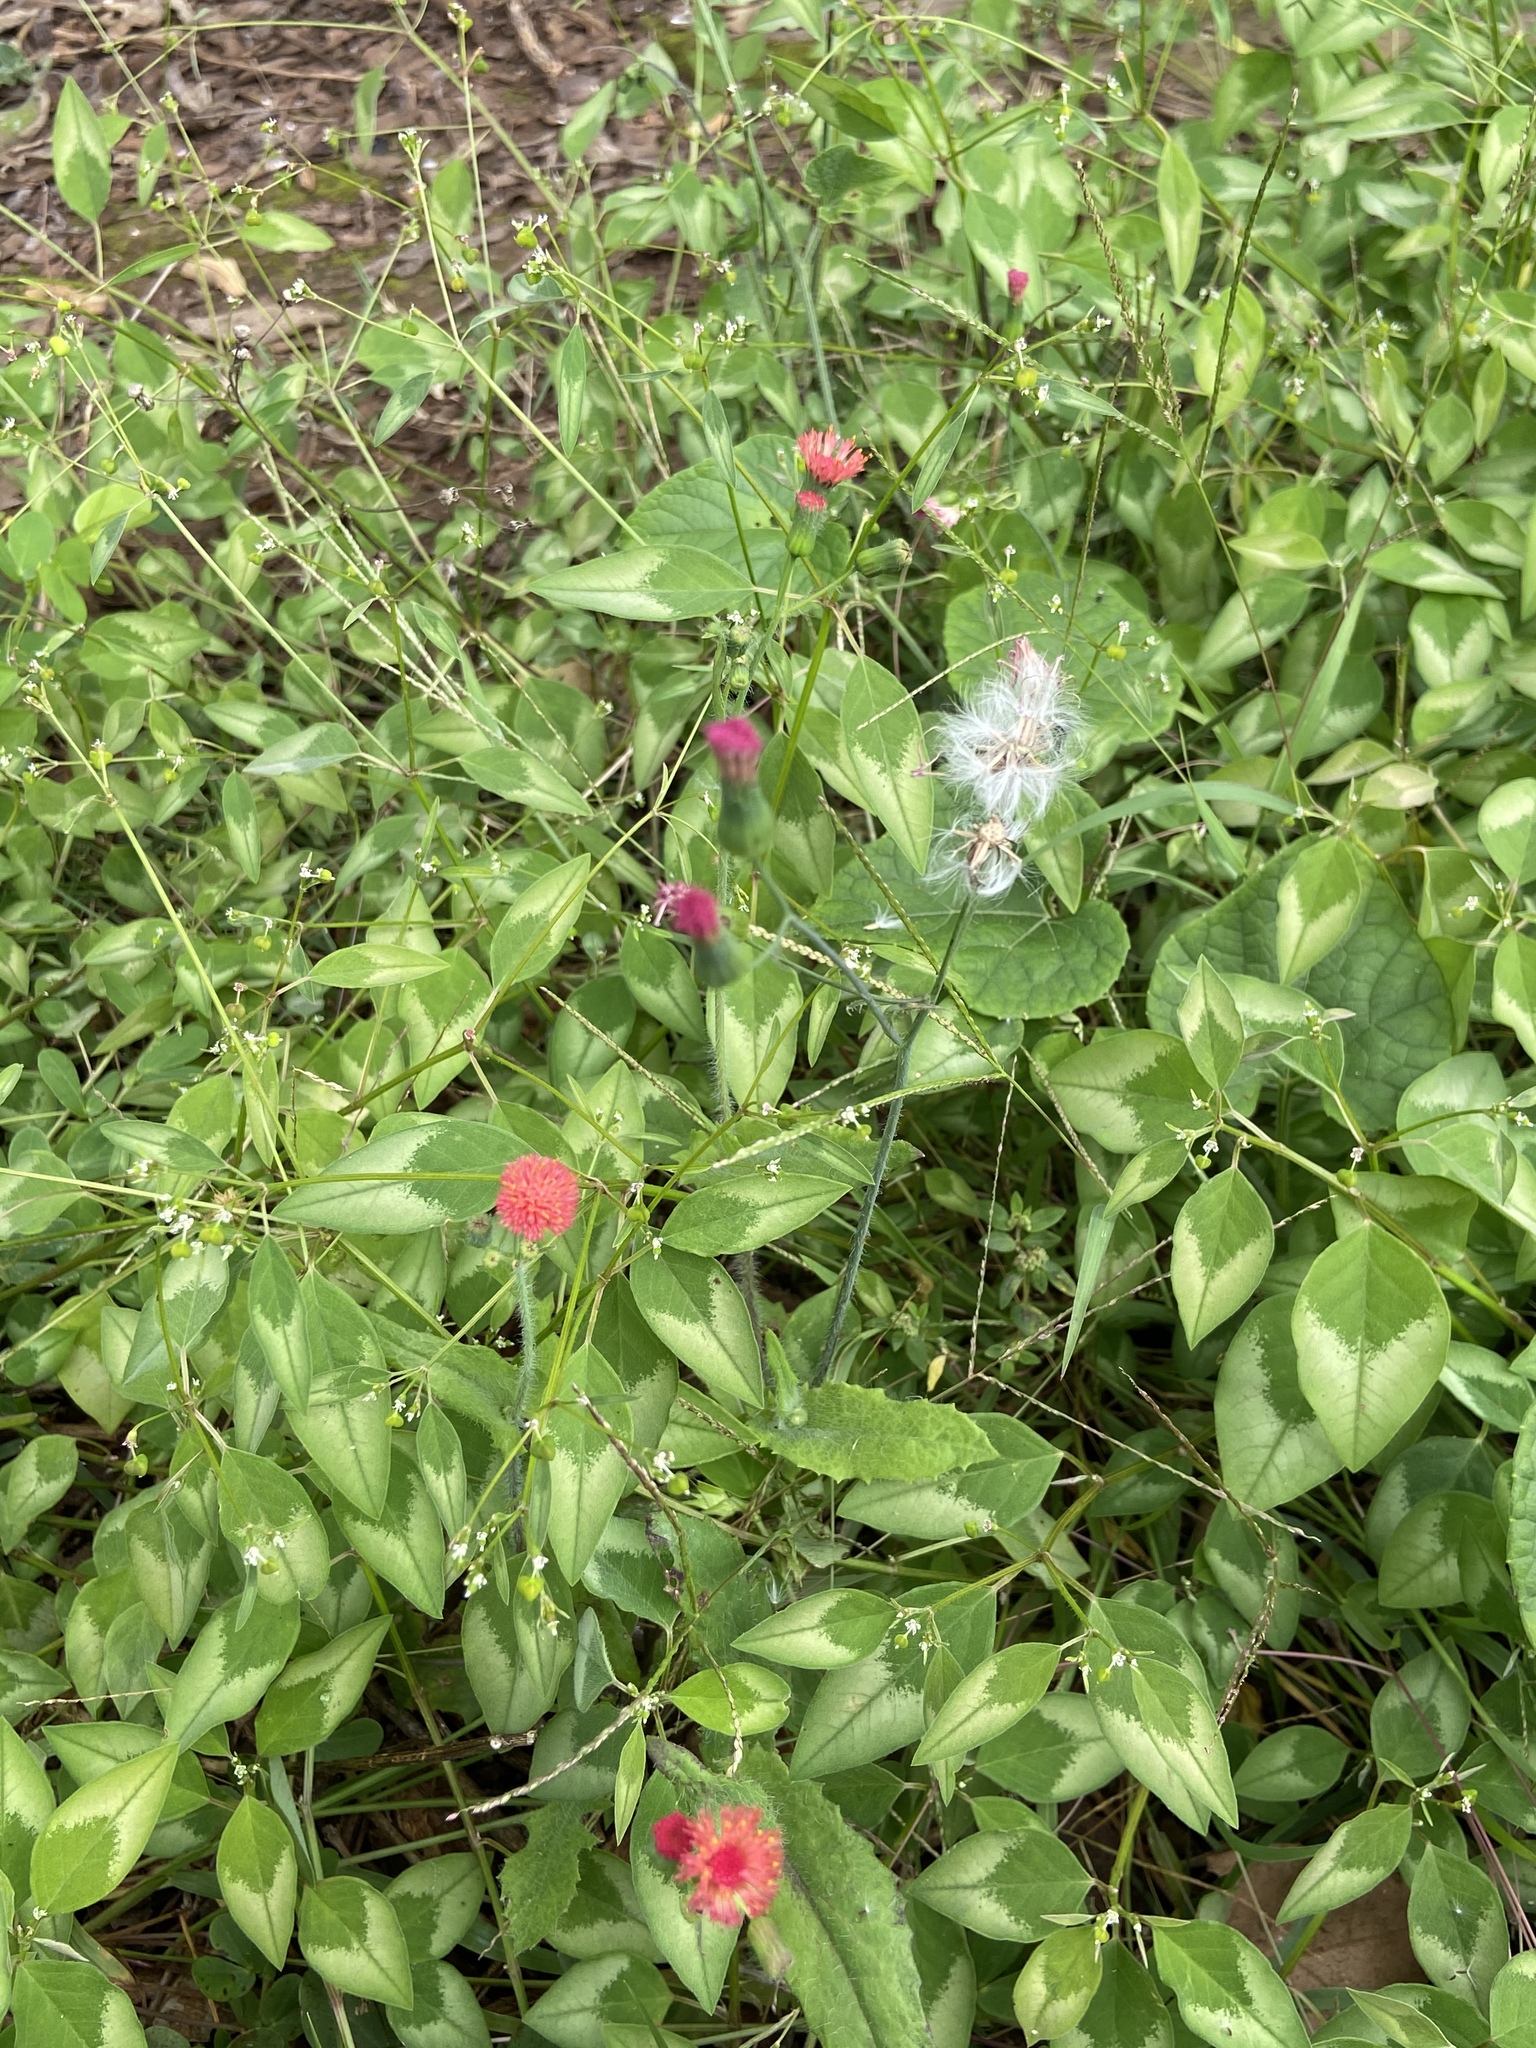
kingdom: Plantae
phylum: Tracheophyta
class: Magnoliopsida
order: Asterales
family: Asteraceae
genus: Emilia
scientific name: Emilia fosbergii
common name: Florida tasselflower
